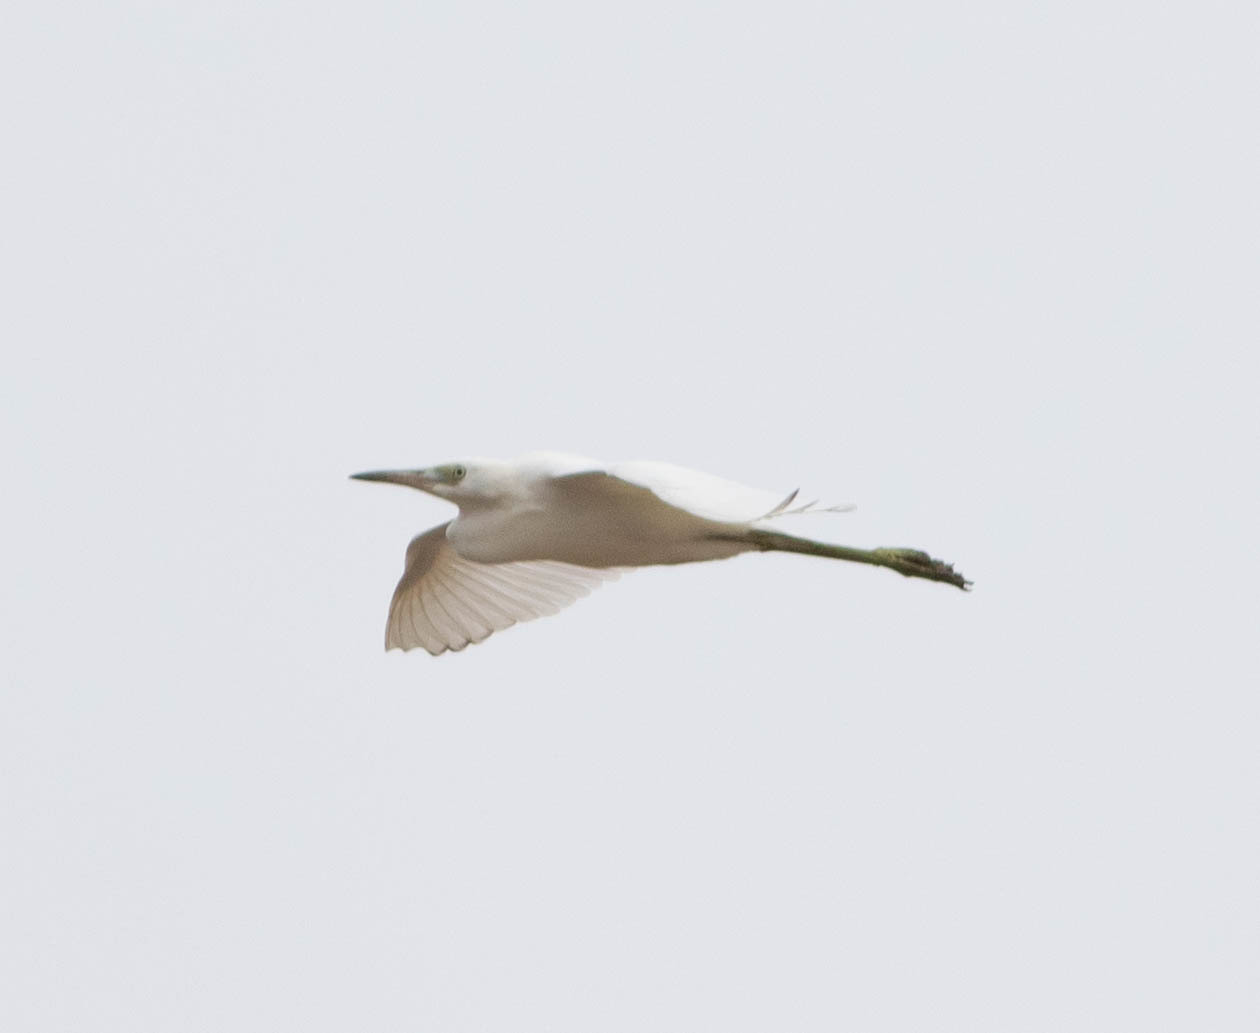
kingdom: Animalia
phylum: Chordata
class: Aves
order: Pelecaniformes
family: Ardeidae
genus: Egretta
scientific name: Egretta thula
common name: Snowy egret
